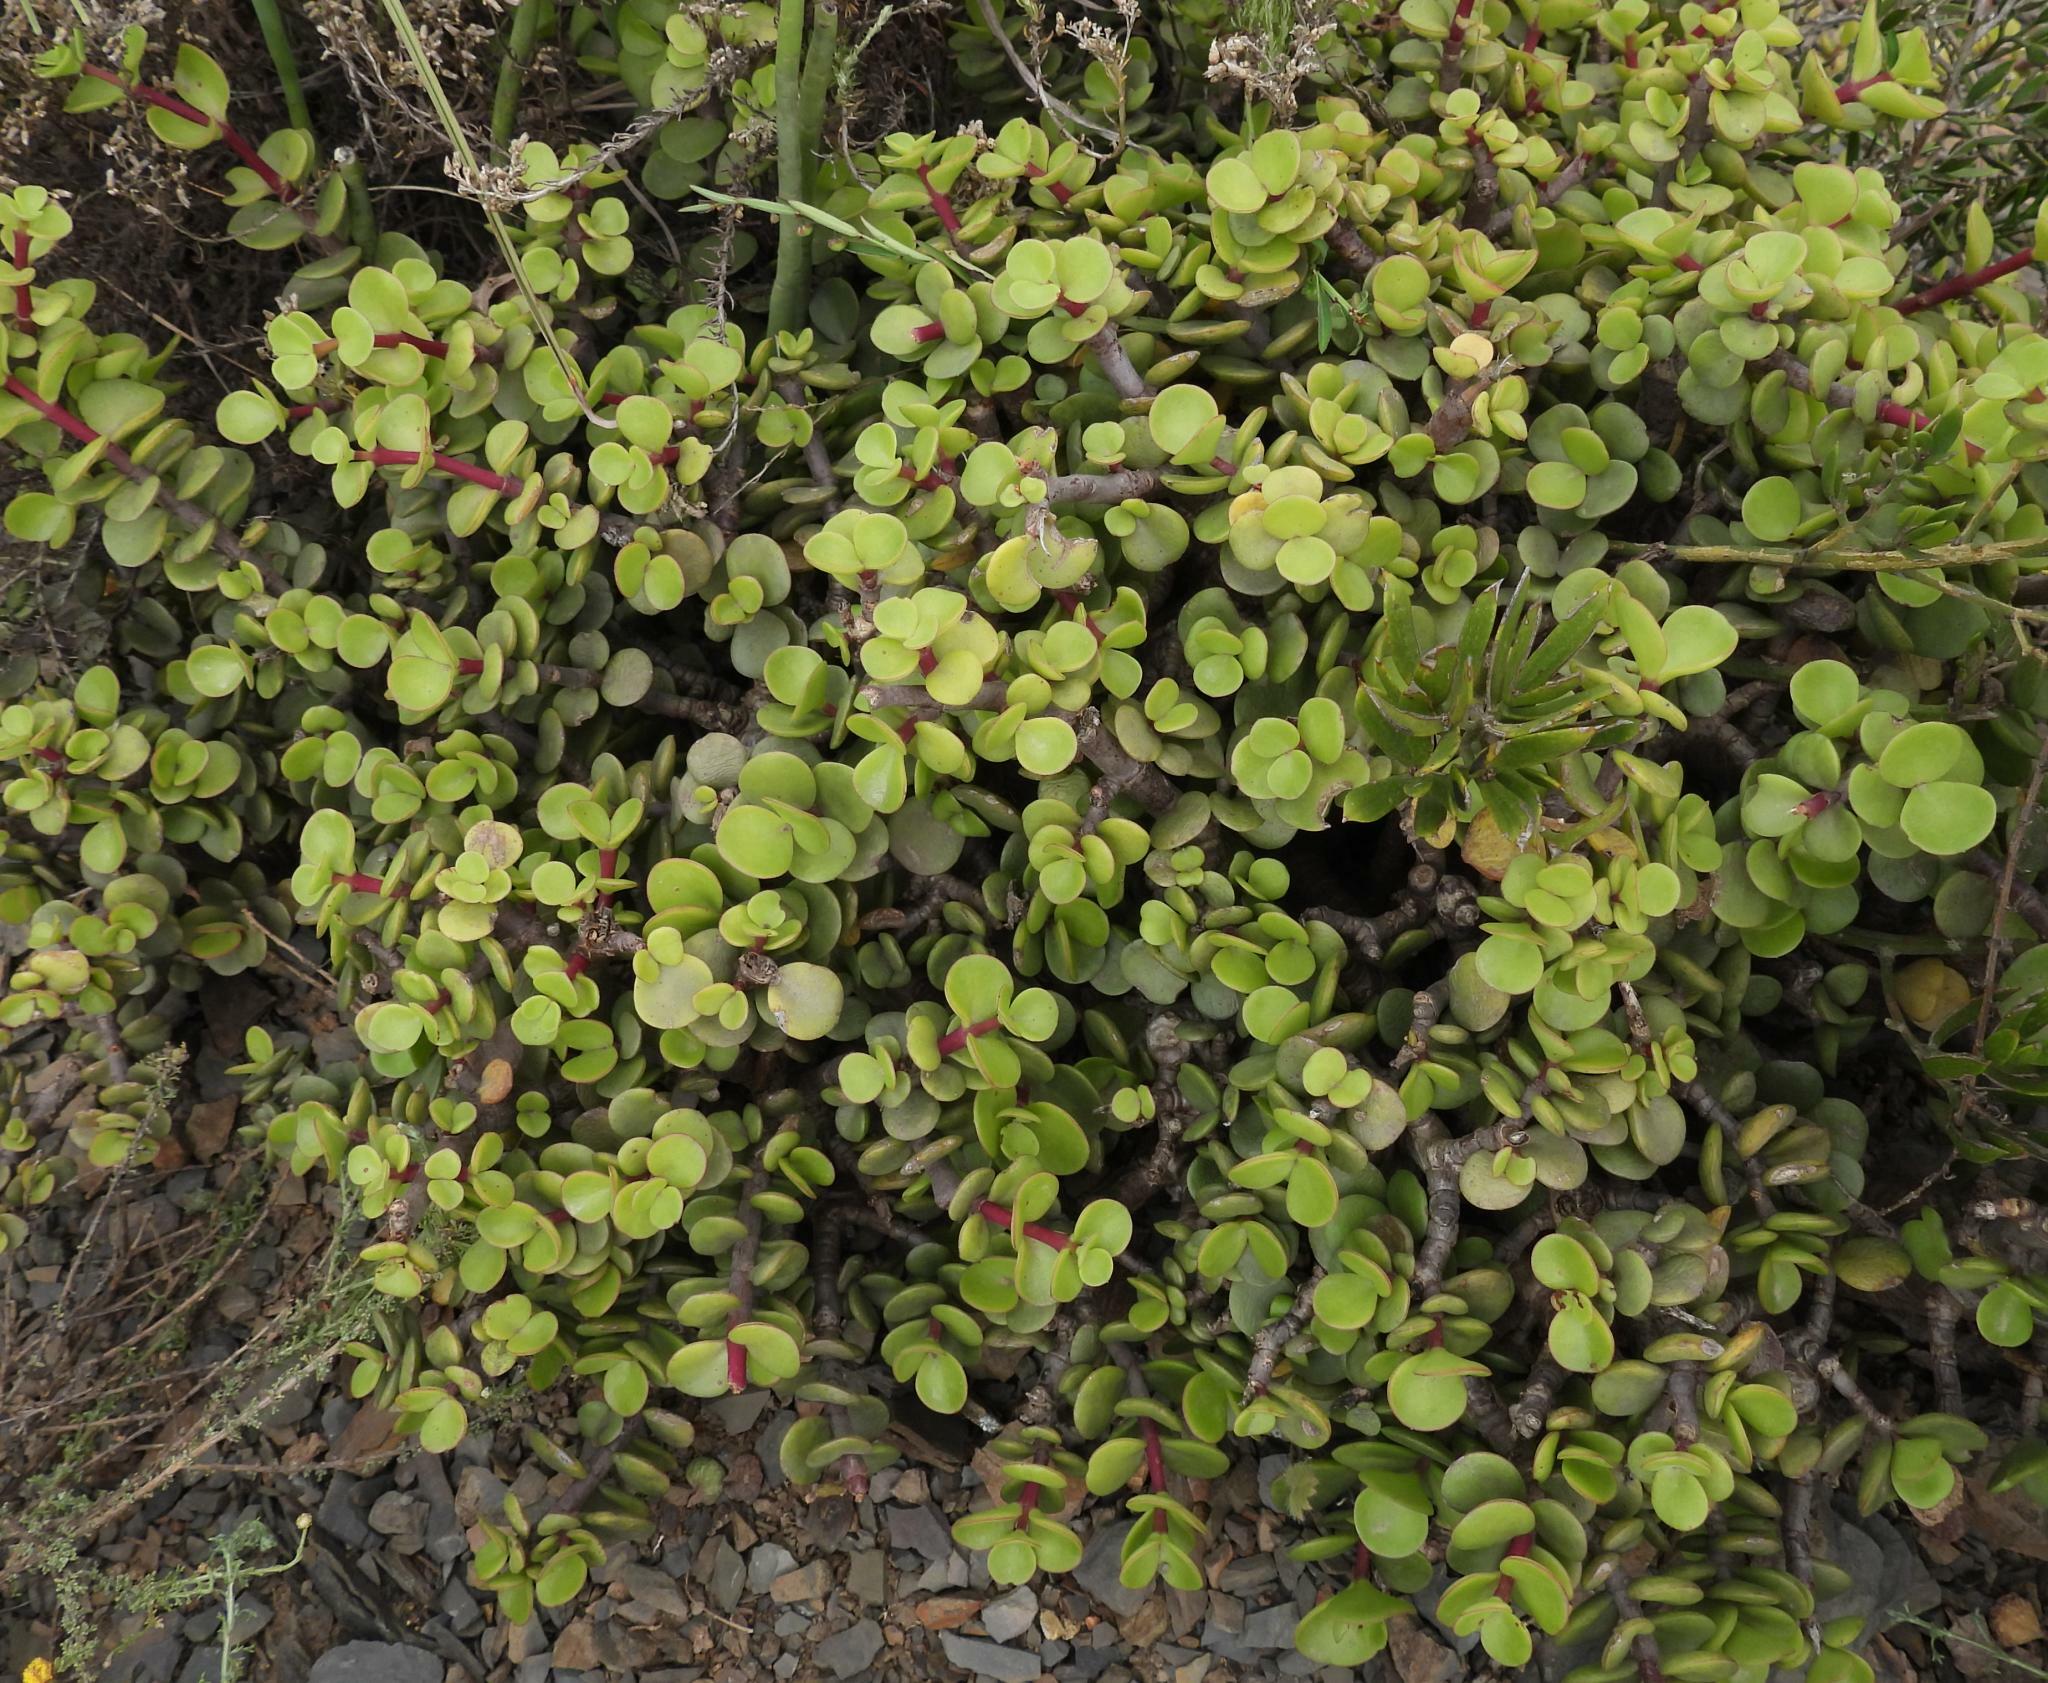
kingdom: Plantae
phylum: Tracheophyta
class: Magnoliopsida
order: Caryophyllales
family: Didiereaceae
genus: Portulacaria
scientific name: Portulacaria afra
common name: Elephant-bush
